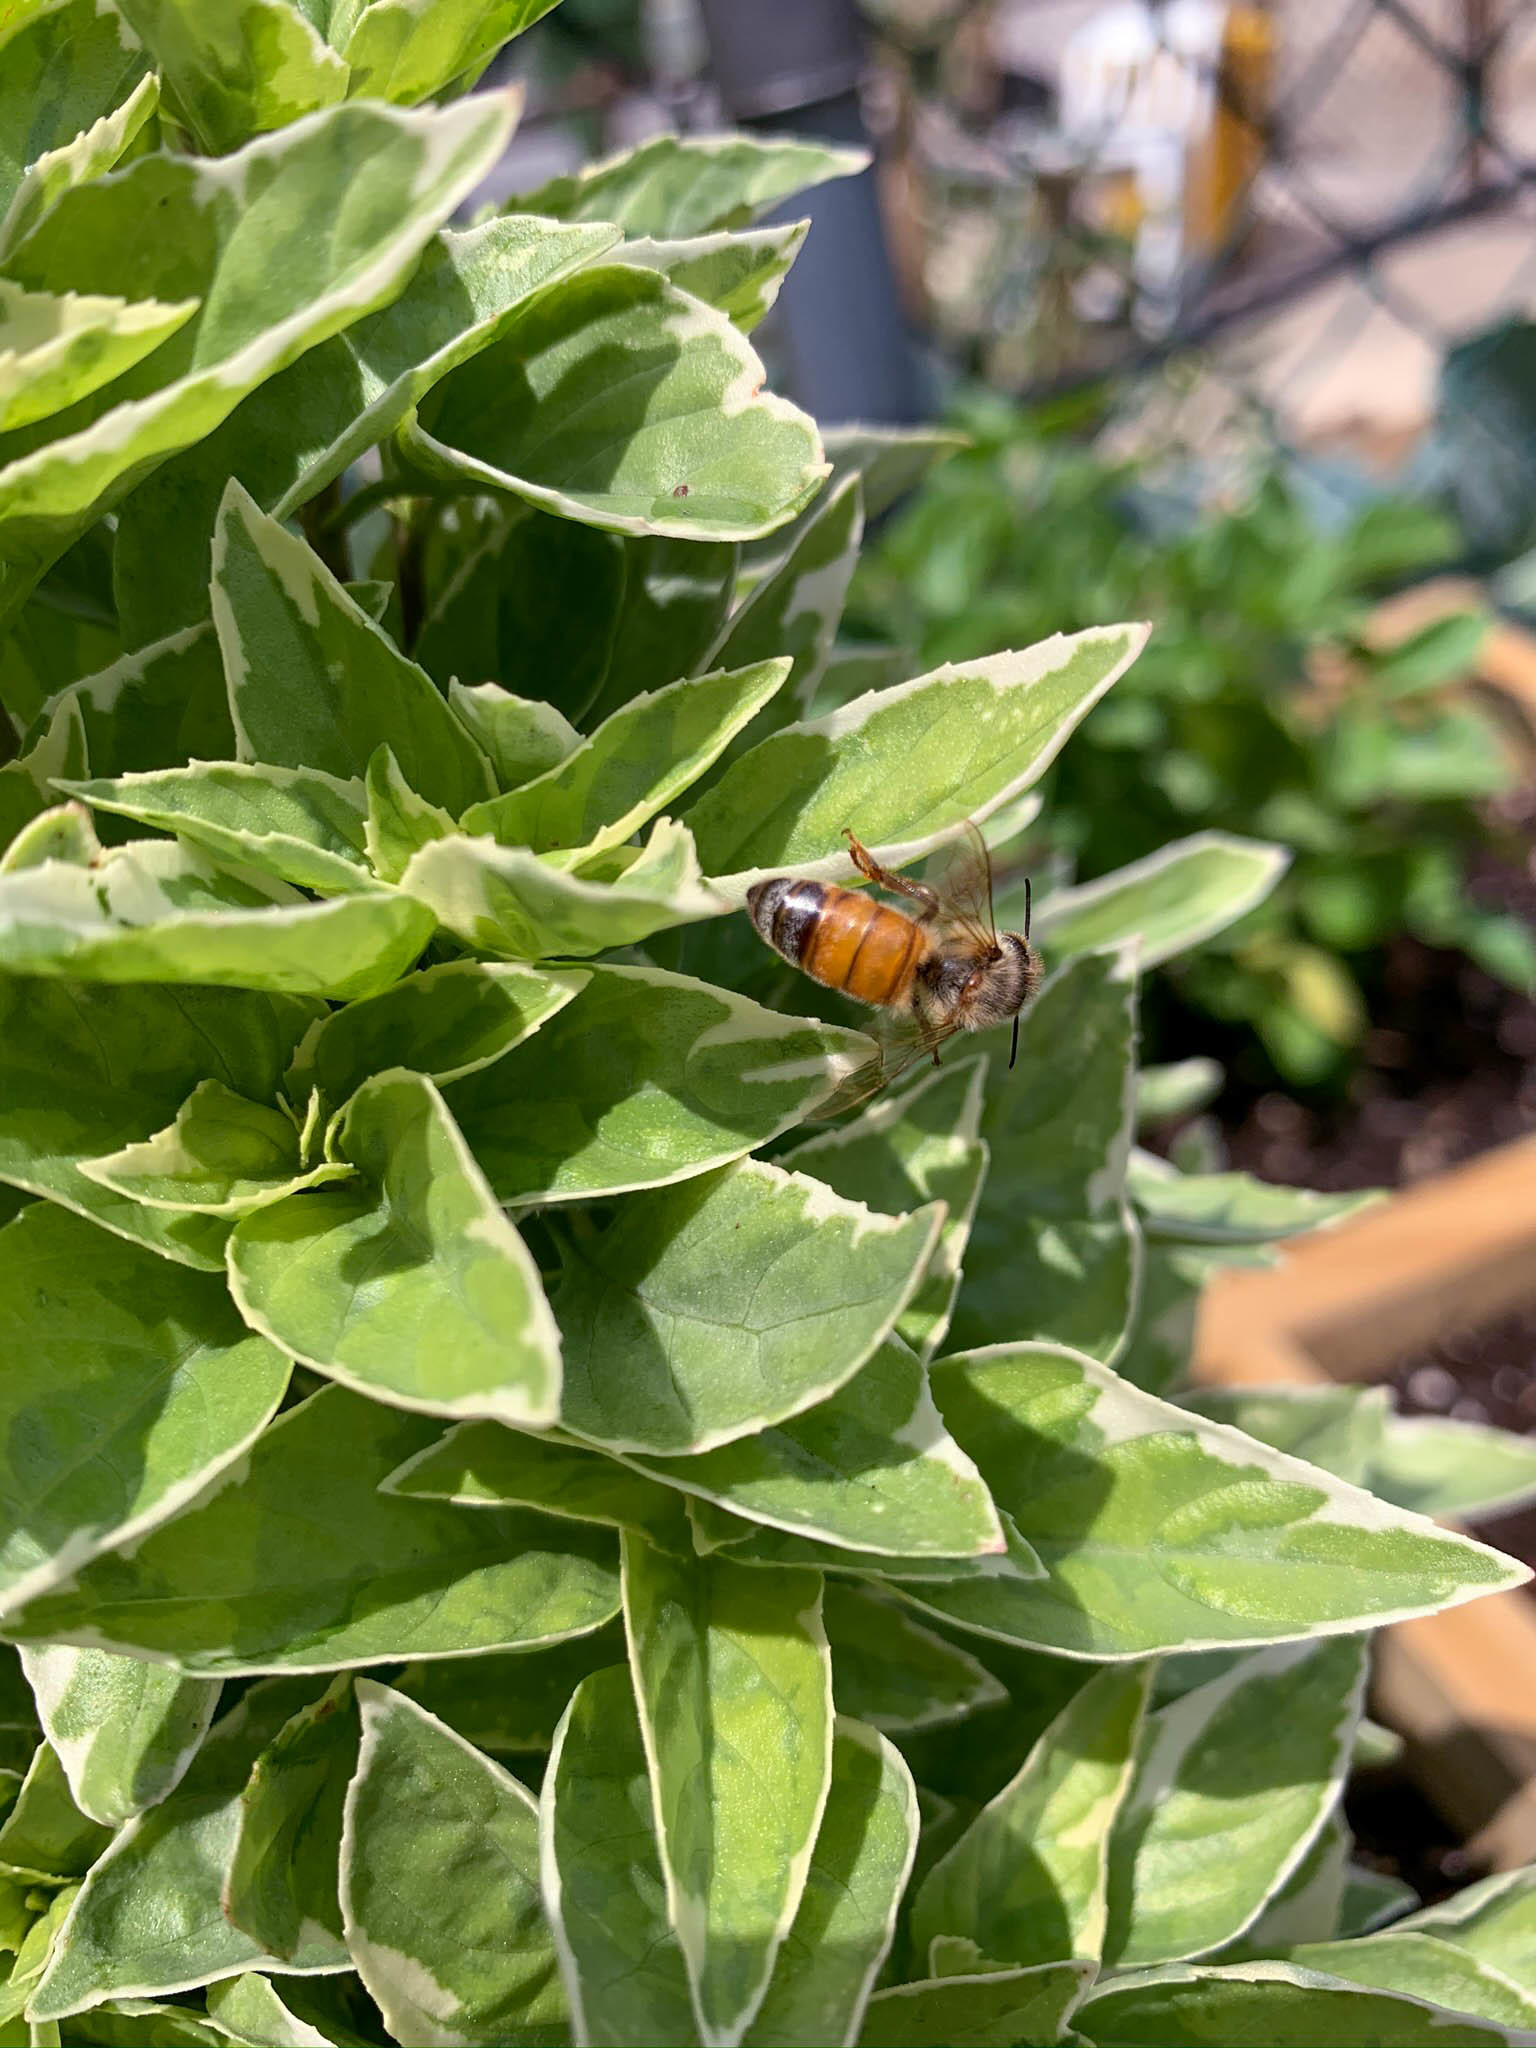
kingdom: Animalia
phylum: Arthropoda
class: Insecta
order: Hymenoptera
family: Apidae
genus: Apis
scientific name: Apis mellifera
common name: Honey bee
